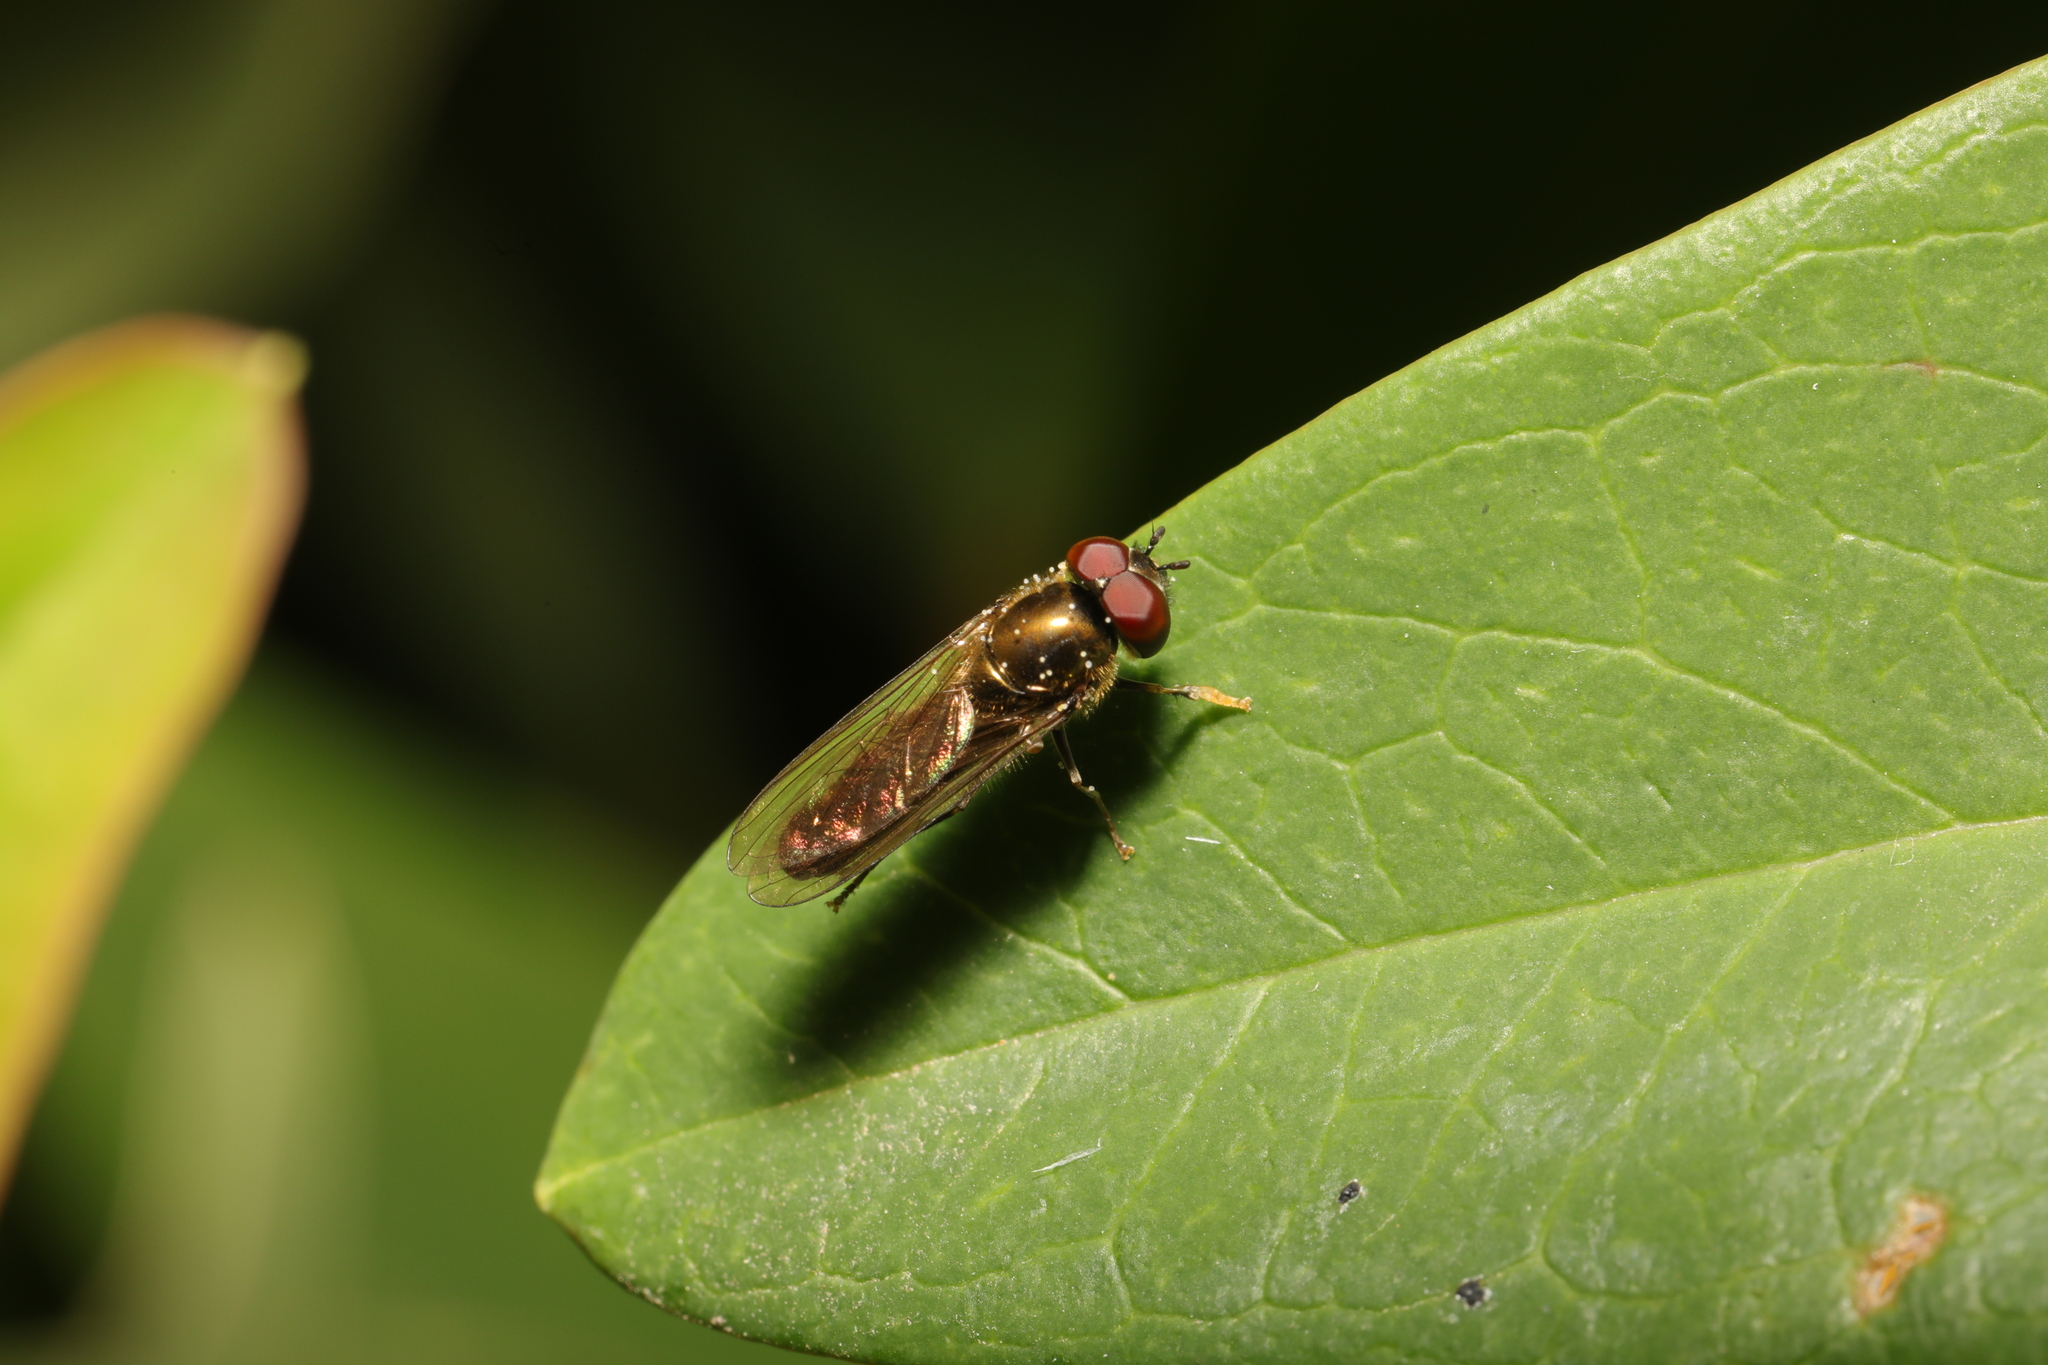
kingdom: Animalia
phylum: Arthropoda
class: Insecta
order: Diptera
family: Syrphidae
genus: Platycheirus
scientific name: Platycheirus albimanus
